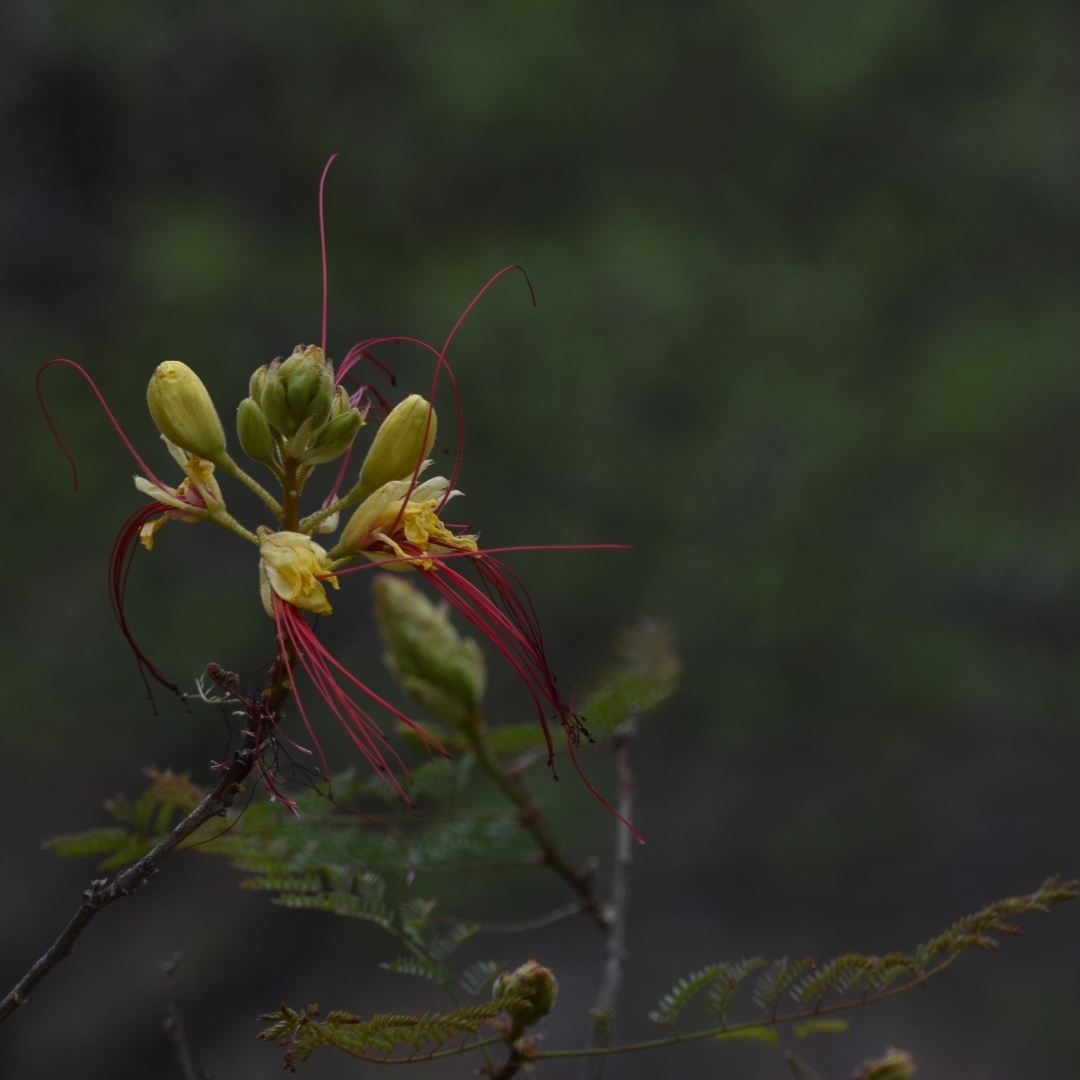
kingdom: Plantae
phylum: Tracheophyta
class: Magnoliopsida
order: Fabales
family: Fabaceae
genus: Erythrostemon
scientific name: Erythrostemon gilliesii
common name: Bird-of-paradise shrub
